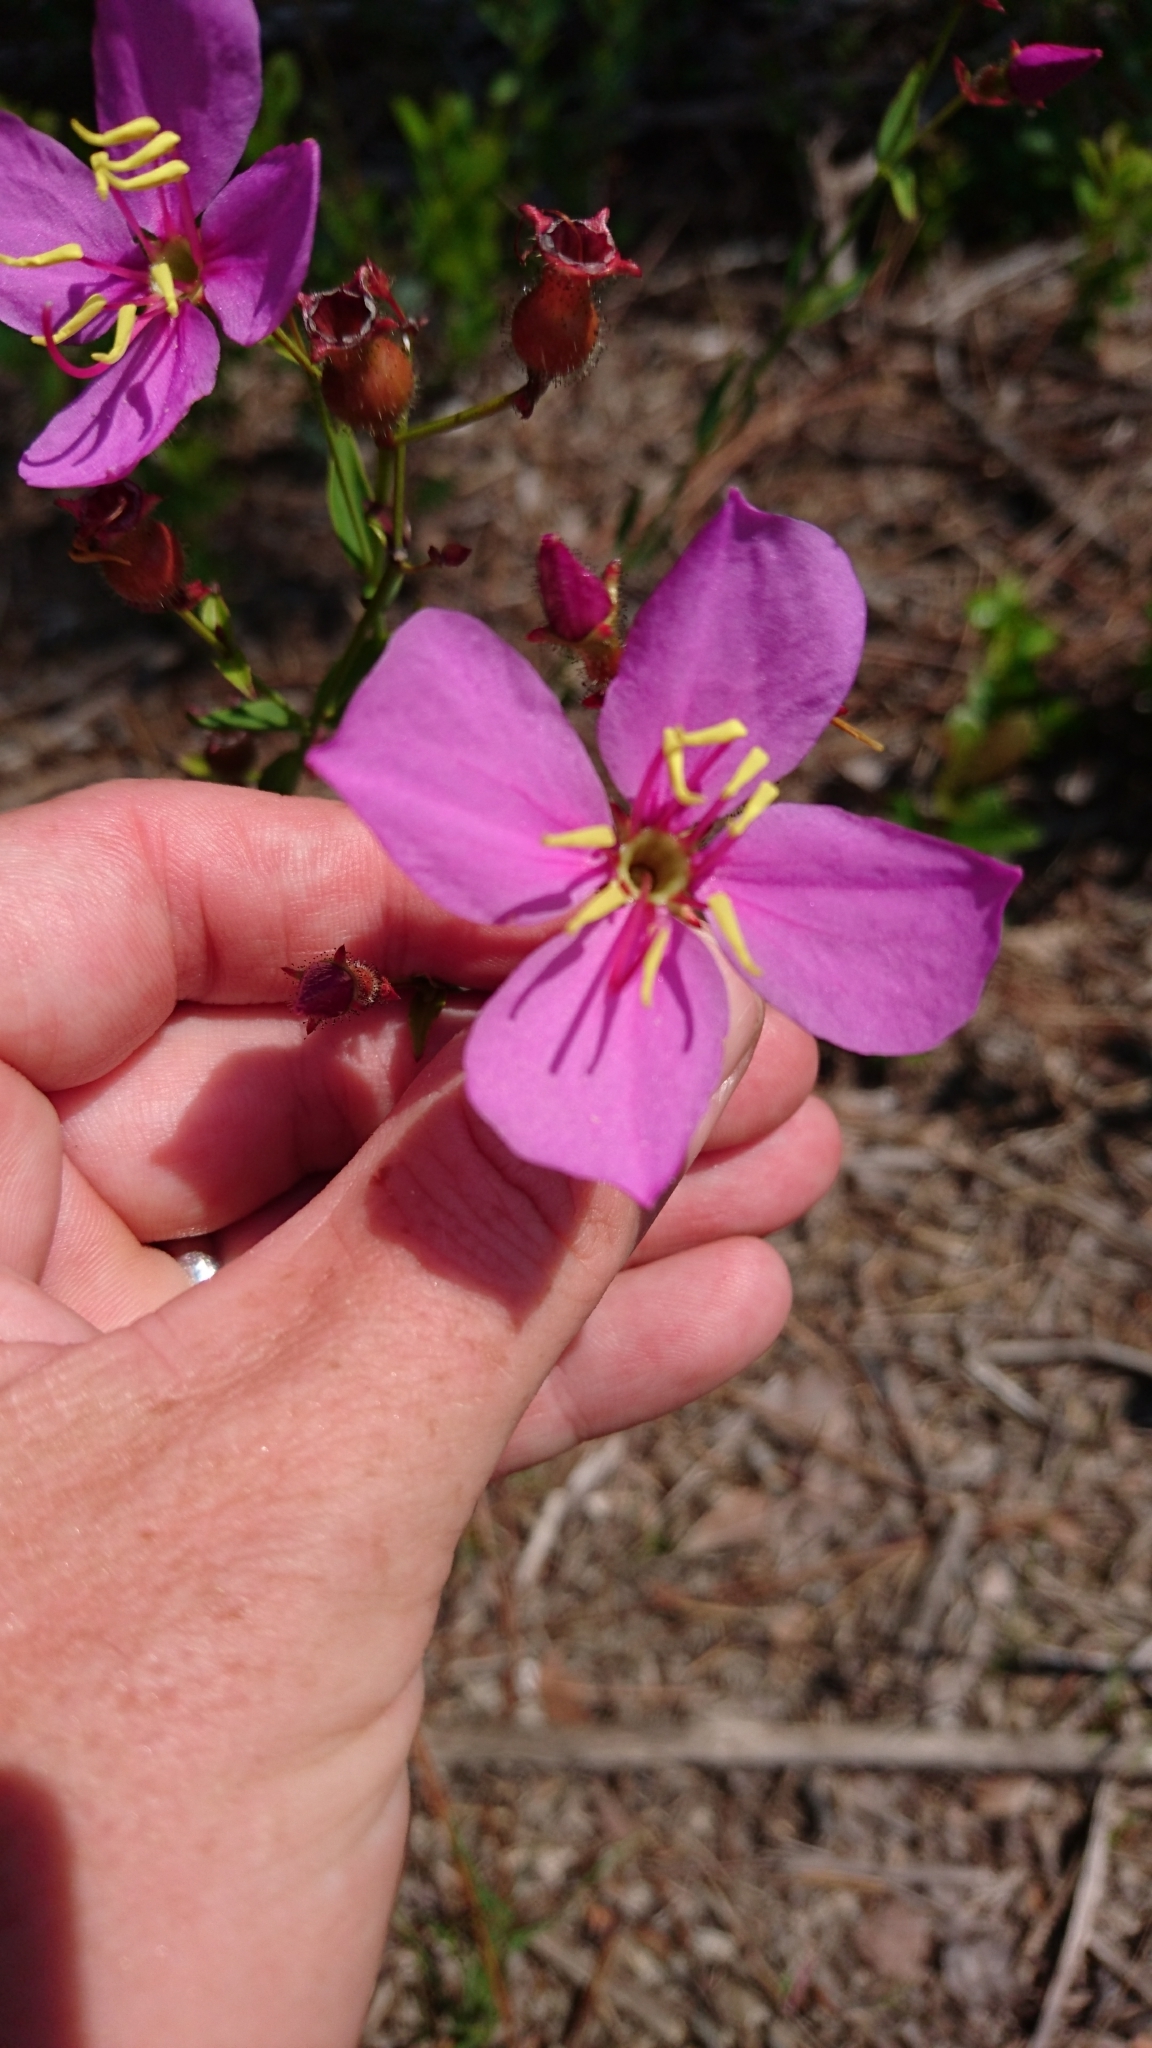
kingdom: Plantae
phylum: Tracheophyta
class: Magnoliopsida
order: Myrtales
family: Melastomataceae
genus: Rhexia
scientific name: Rhexia alifanus
